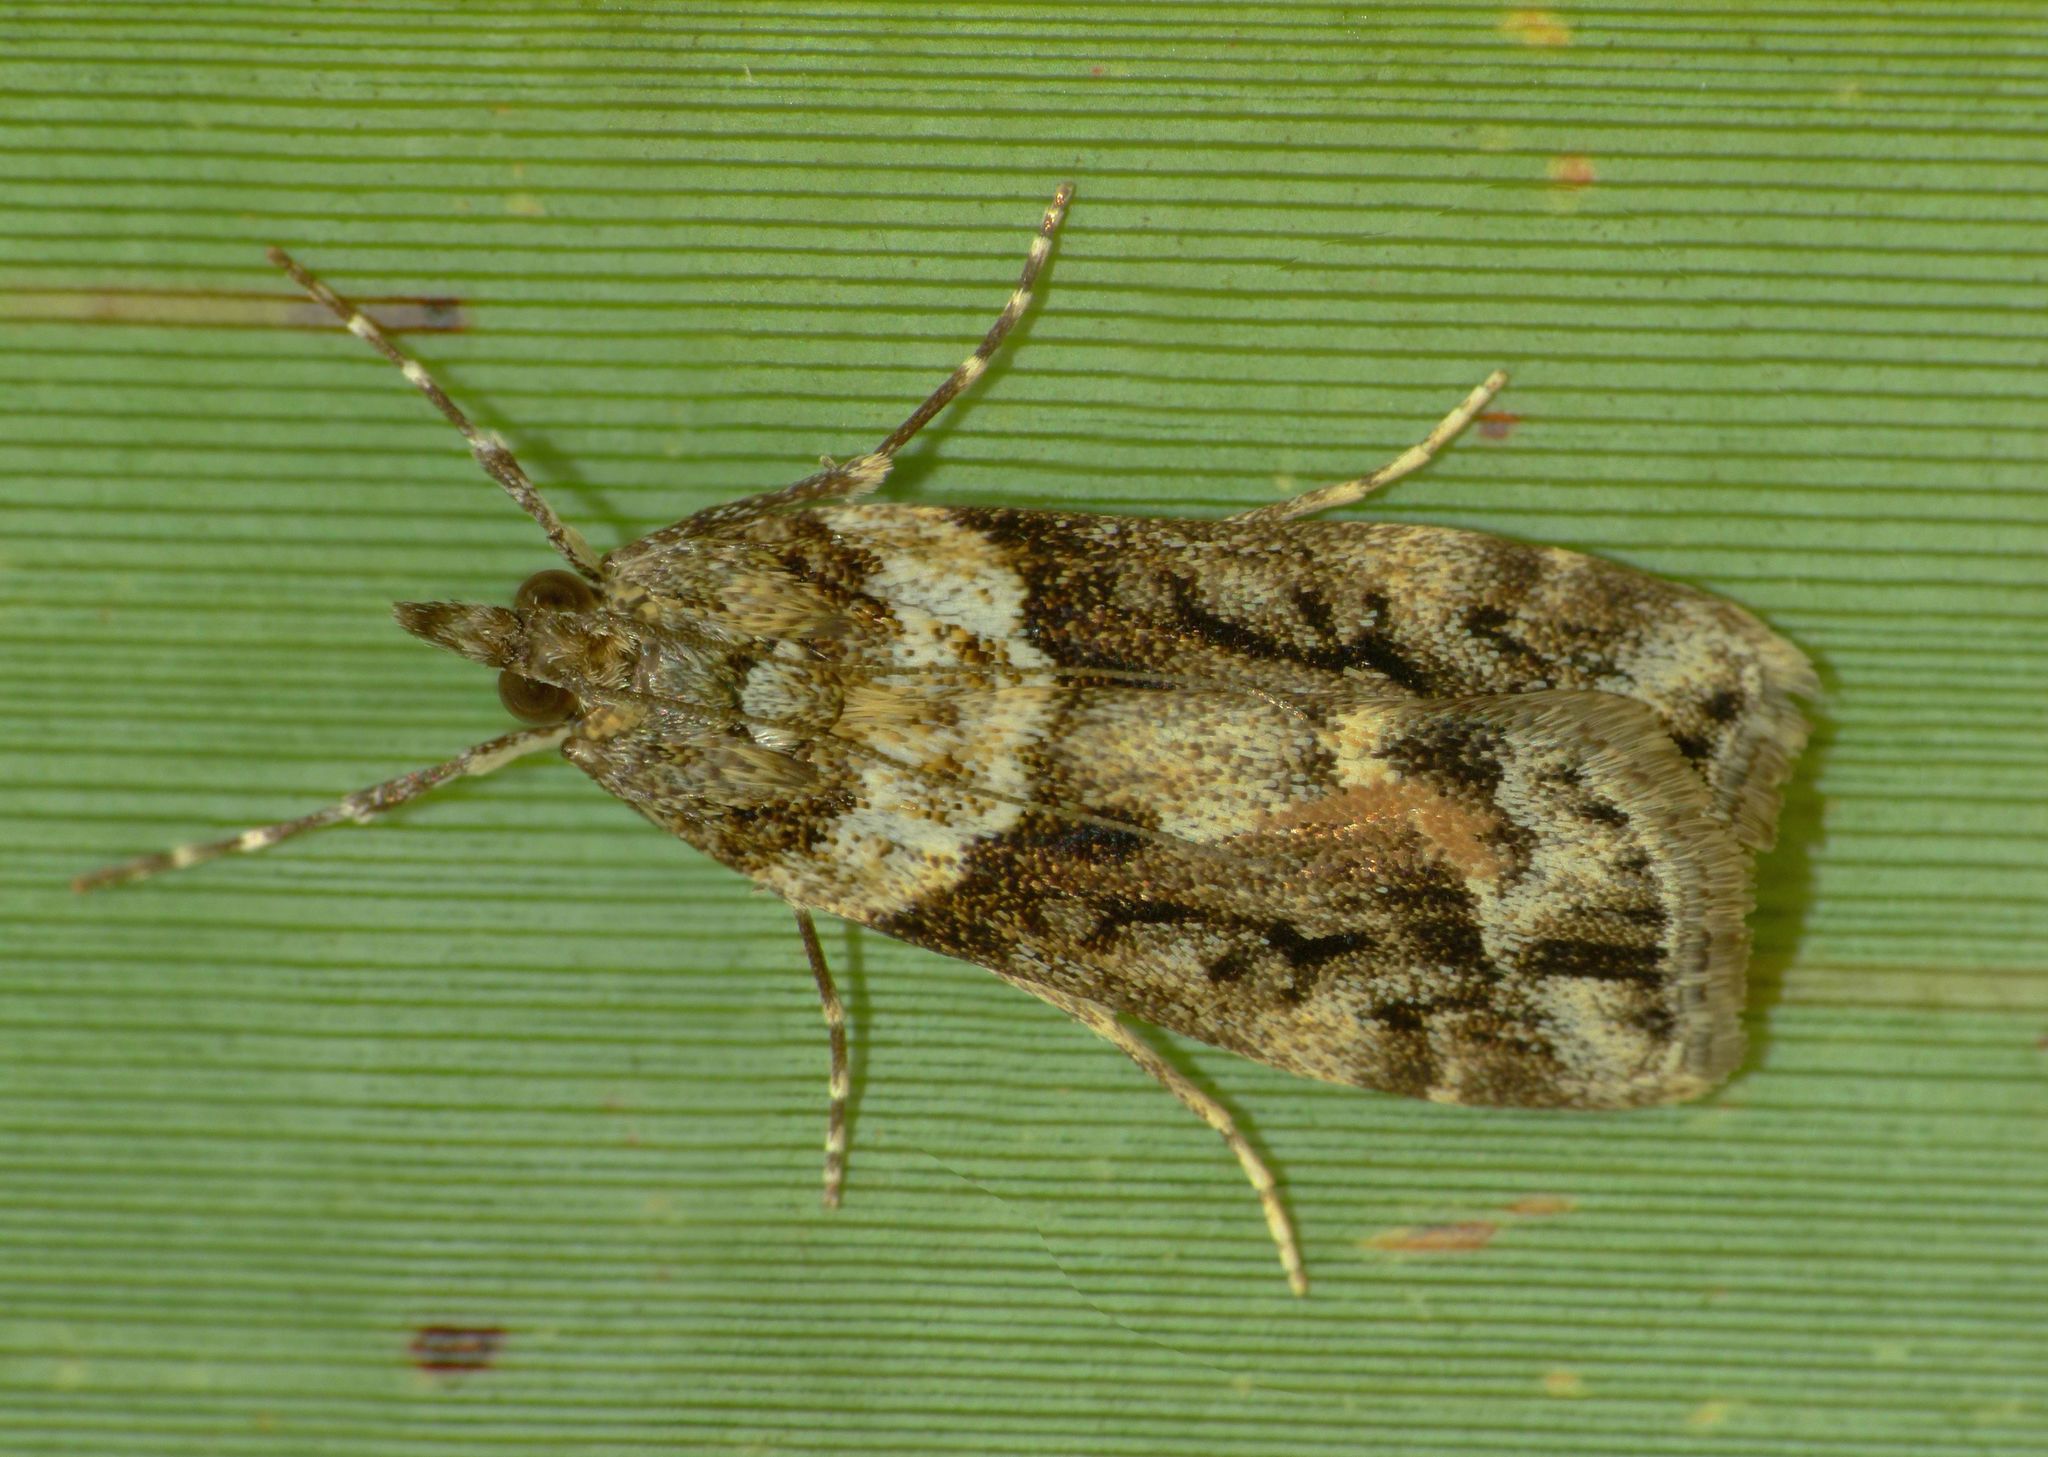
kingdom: Animalia
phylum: Arthropoda
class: Insecta
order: Lepidoptera
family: Crambidae
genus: Eudonia
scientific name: Eudonia submarginalis
